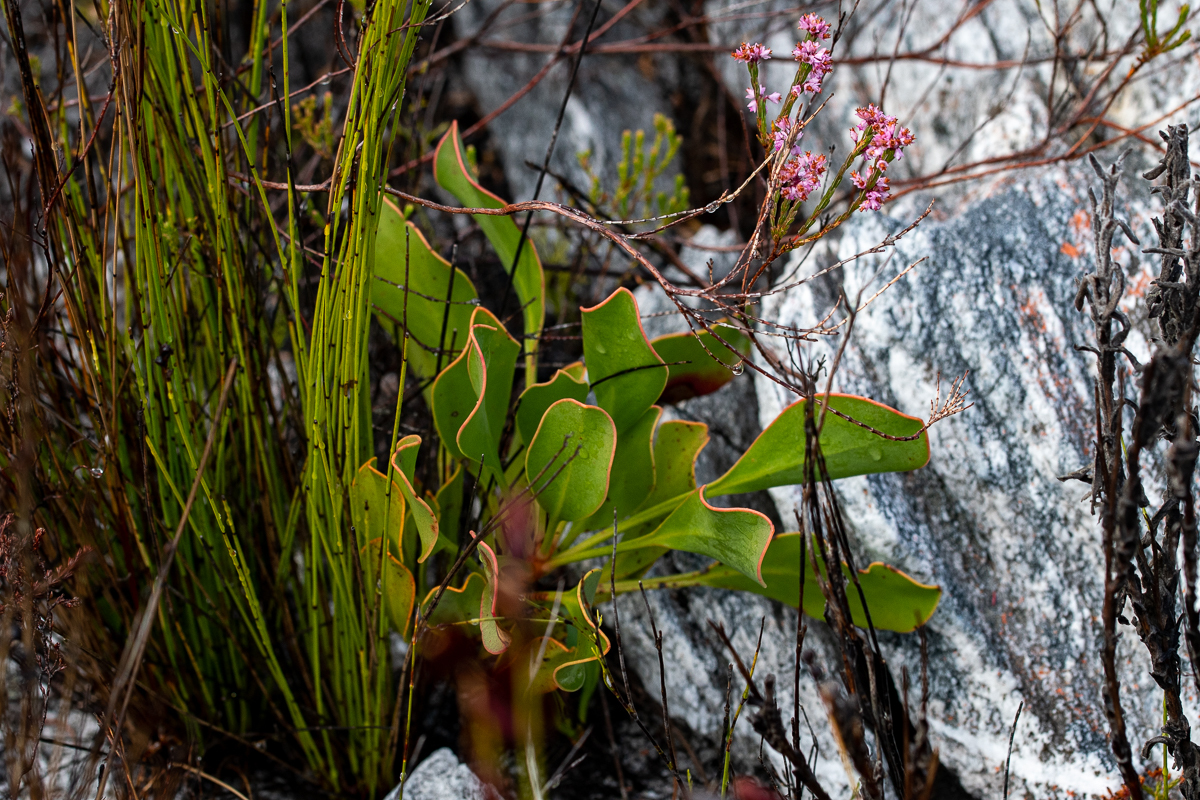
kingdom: Plantae
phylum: Tracheophyta
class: Magnoliopsida
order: Proteales
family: Proteaceae
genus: Protea
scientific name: Protea cynaroides
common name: King protea
